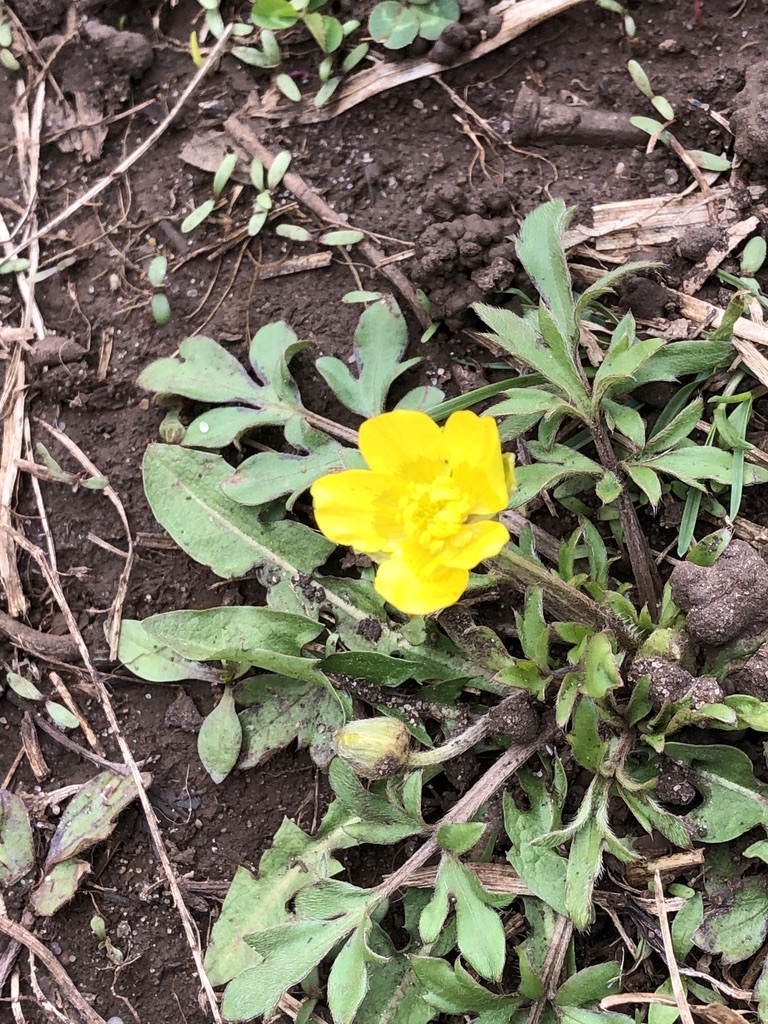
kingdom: Plantae
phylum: Tracheophyta
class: Magnoliopsida
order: Ranunculales
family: Ranunculaceae
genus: Ranunculus
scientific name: Ranunculus fascicularis
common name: Early buttercup
